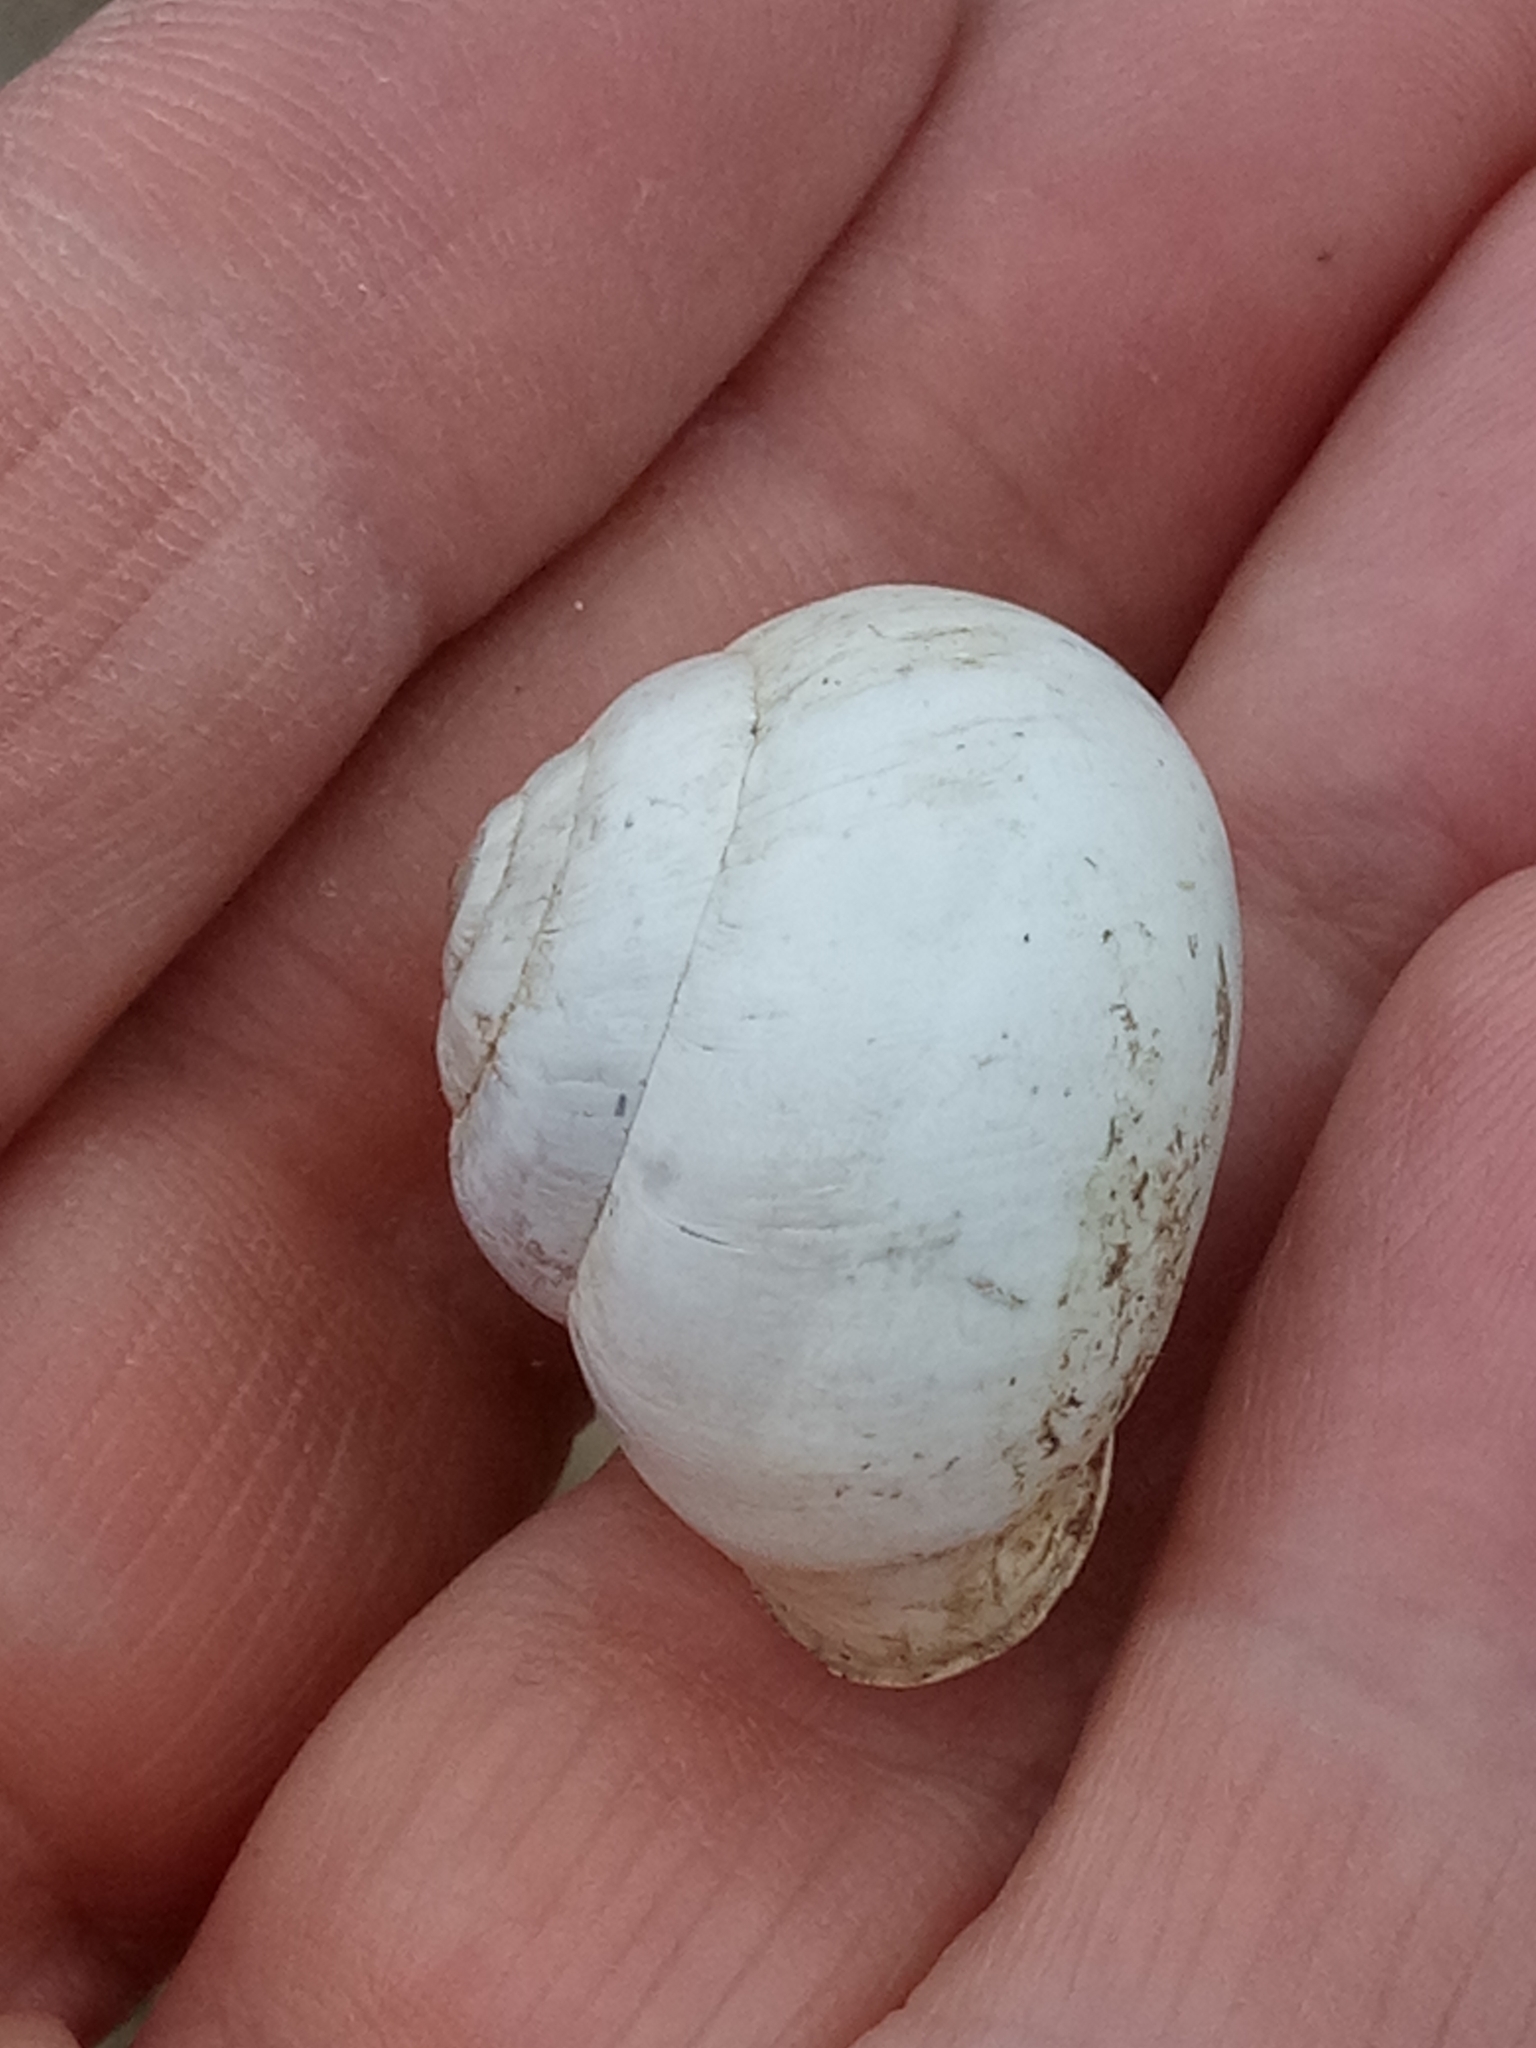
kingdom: Animalia
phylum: Mollusca
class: Gastropoda
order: Stylommatophora
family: Helicidae
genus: Eobania
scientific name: Eobania constantina
